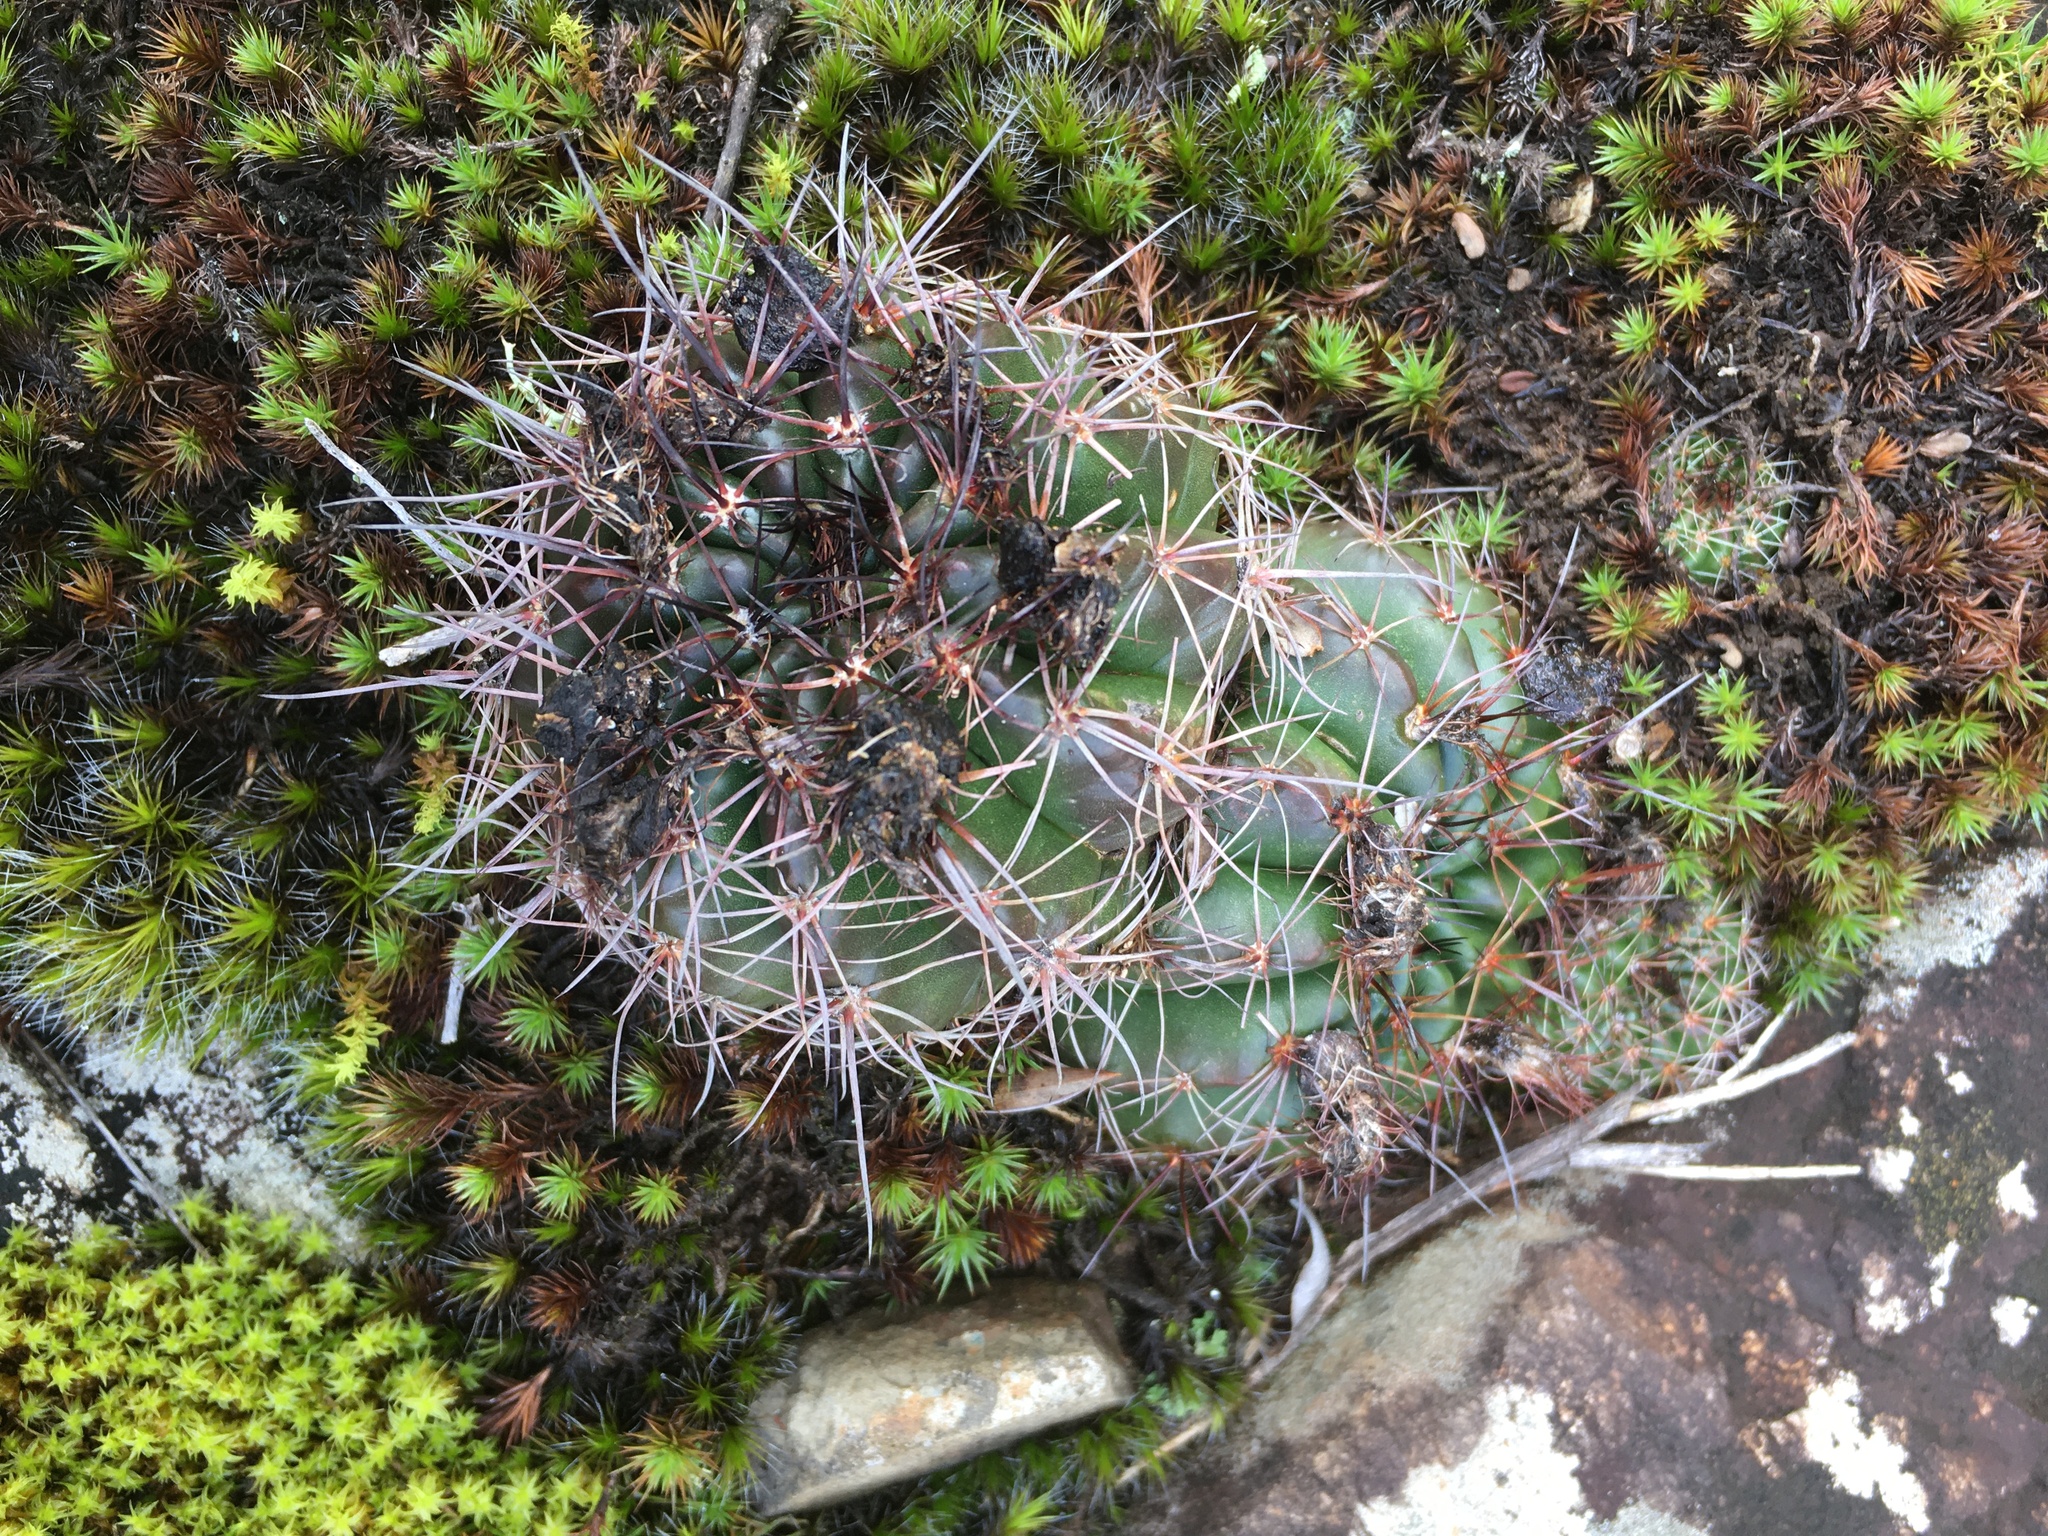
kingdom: Plantae
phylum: Tracheophyta
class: Magnoliopsida
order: Caryophyllales
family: Cactaceae
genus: Parodia
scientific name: Parodia linkii
